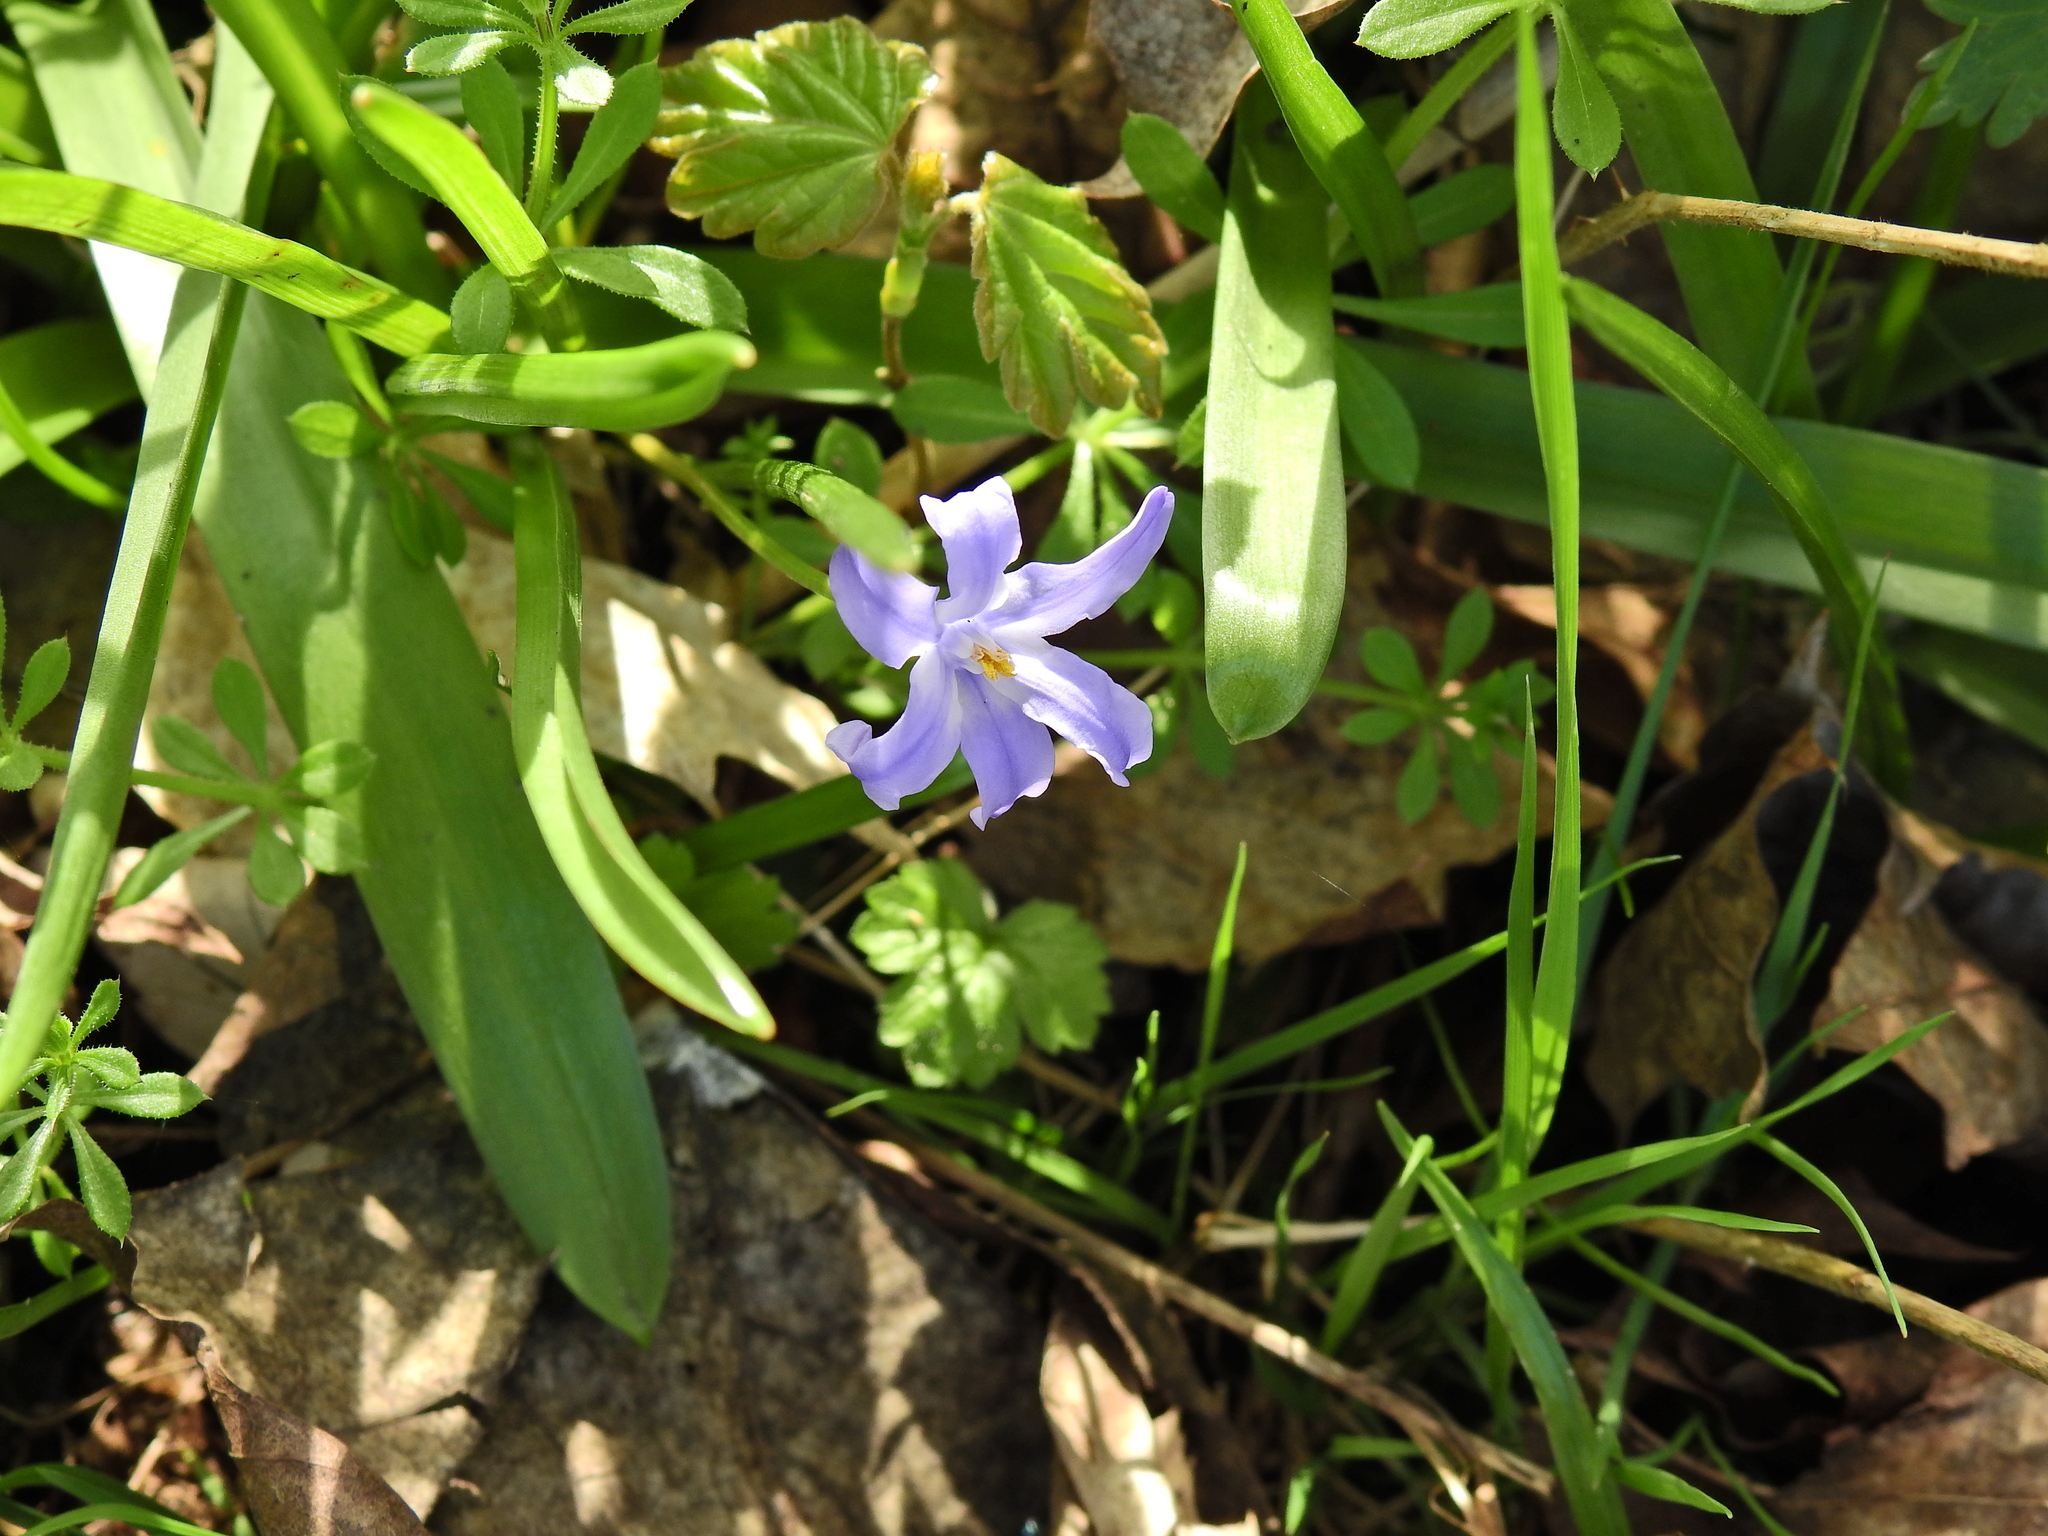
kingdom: Plantae
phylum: Tracheophyta
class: Liliopsida
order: Asparagales
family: Asparagaceae
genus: Scilla
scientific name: Scilla forbesii
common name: Glory-of-the-snow
